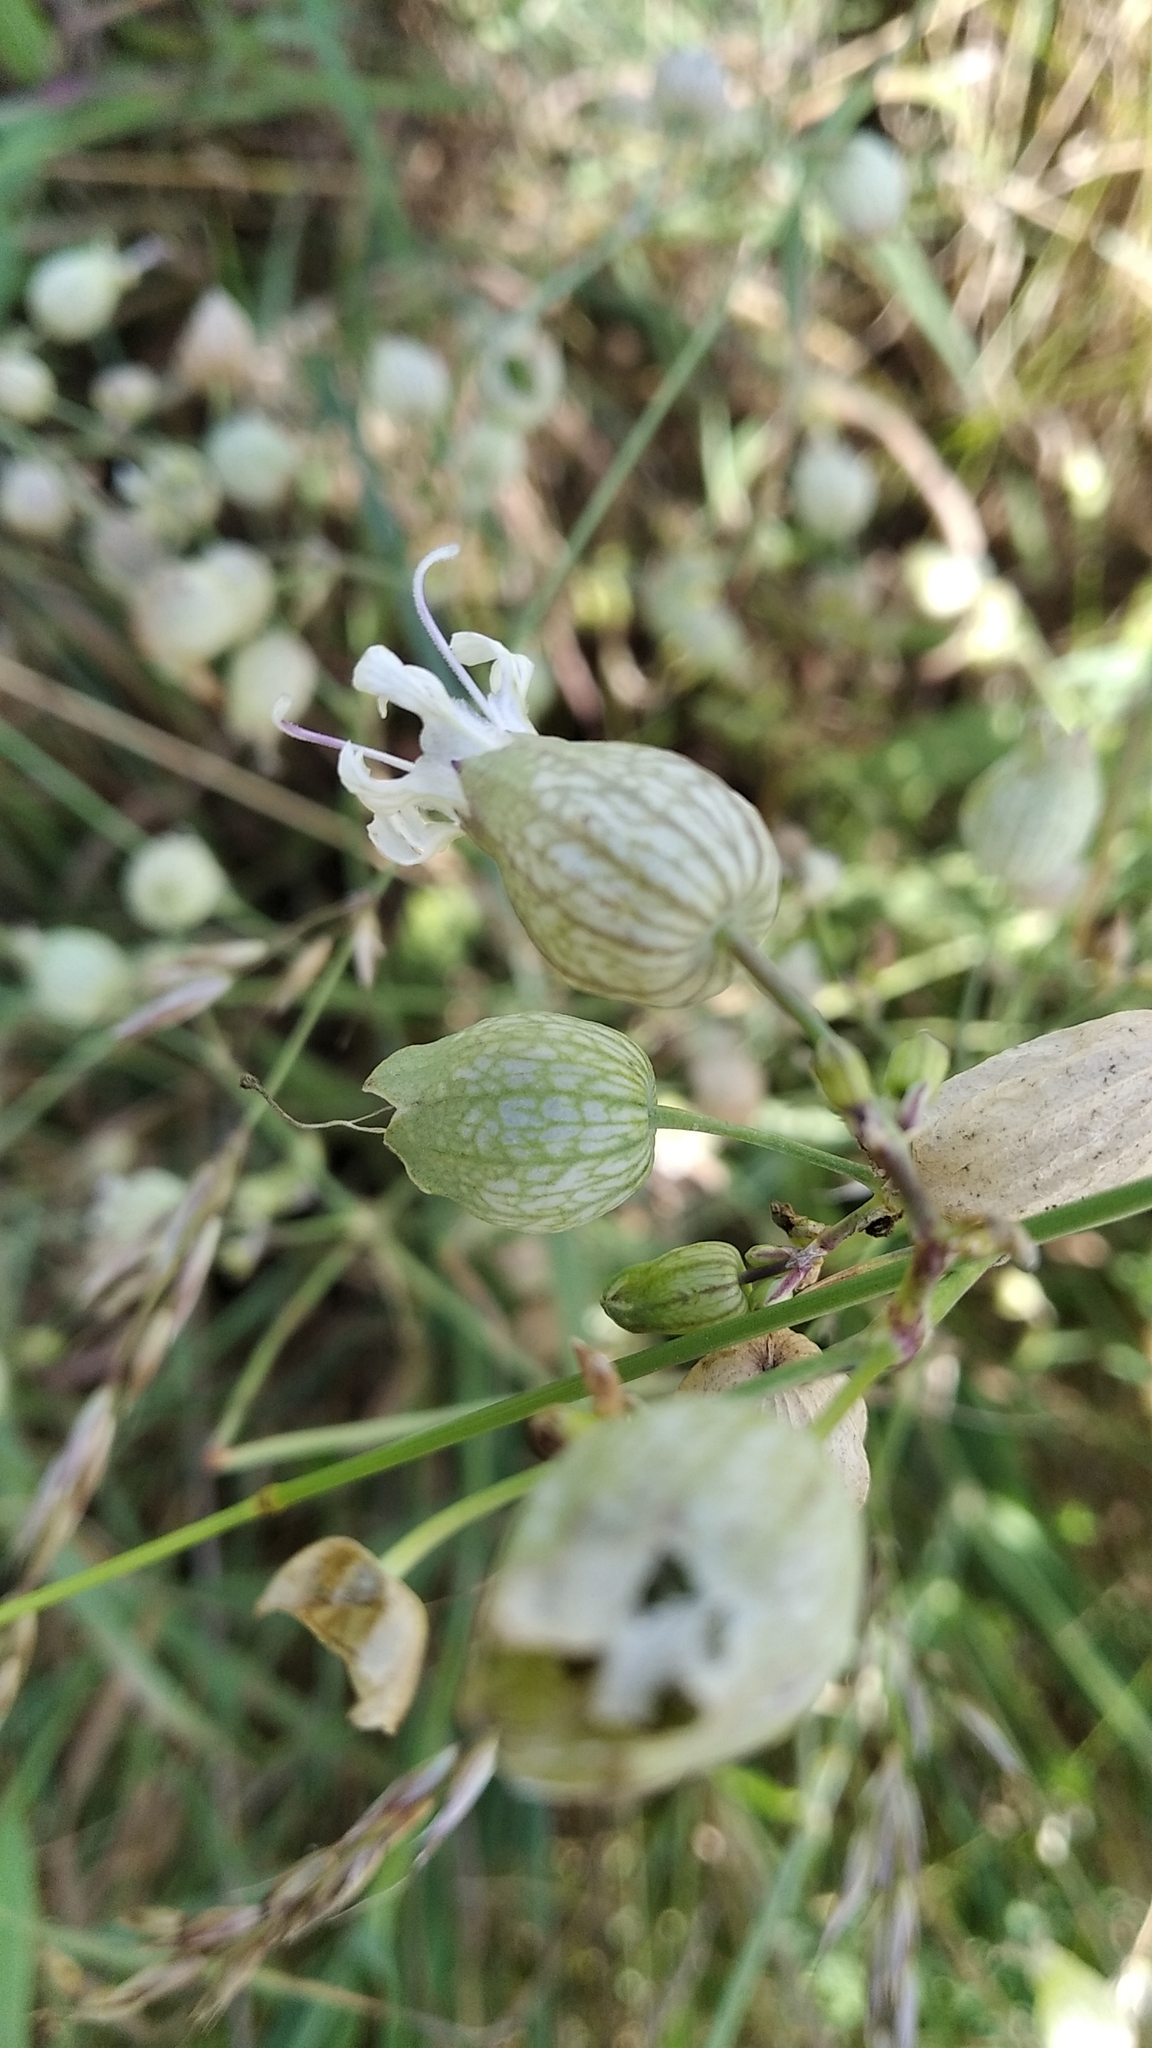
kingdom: Plantae
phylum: Tracheophyta
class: Magnoliopsida
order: Caryophyllales
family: Caryophyllaceae
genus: Silene
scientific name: Silene vulgaris
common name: Bladder campion
